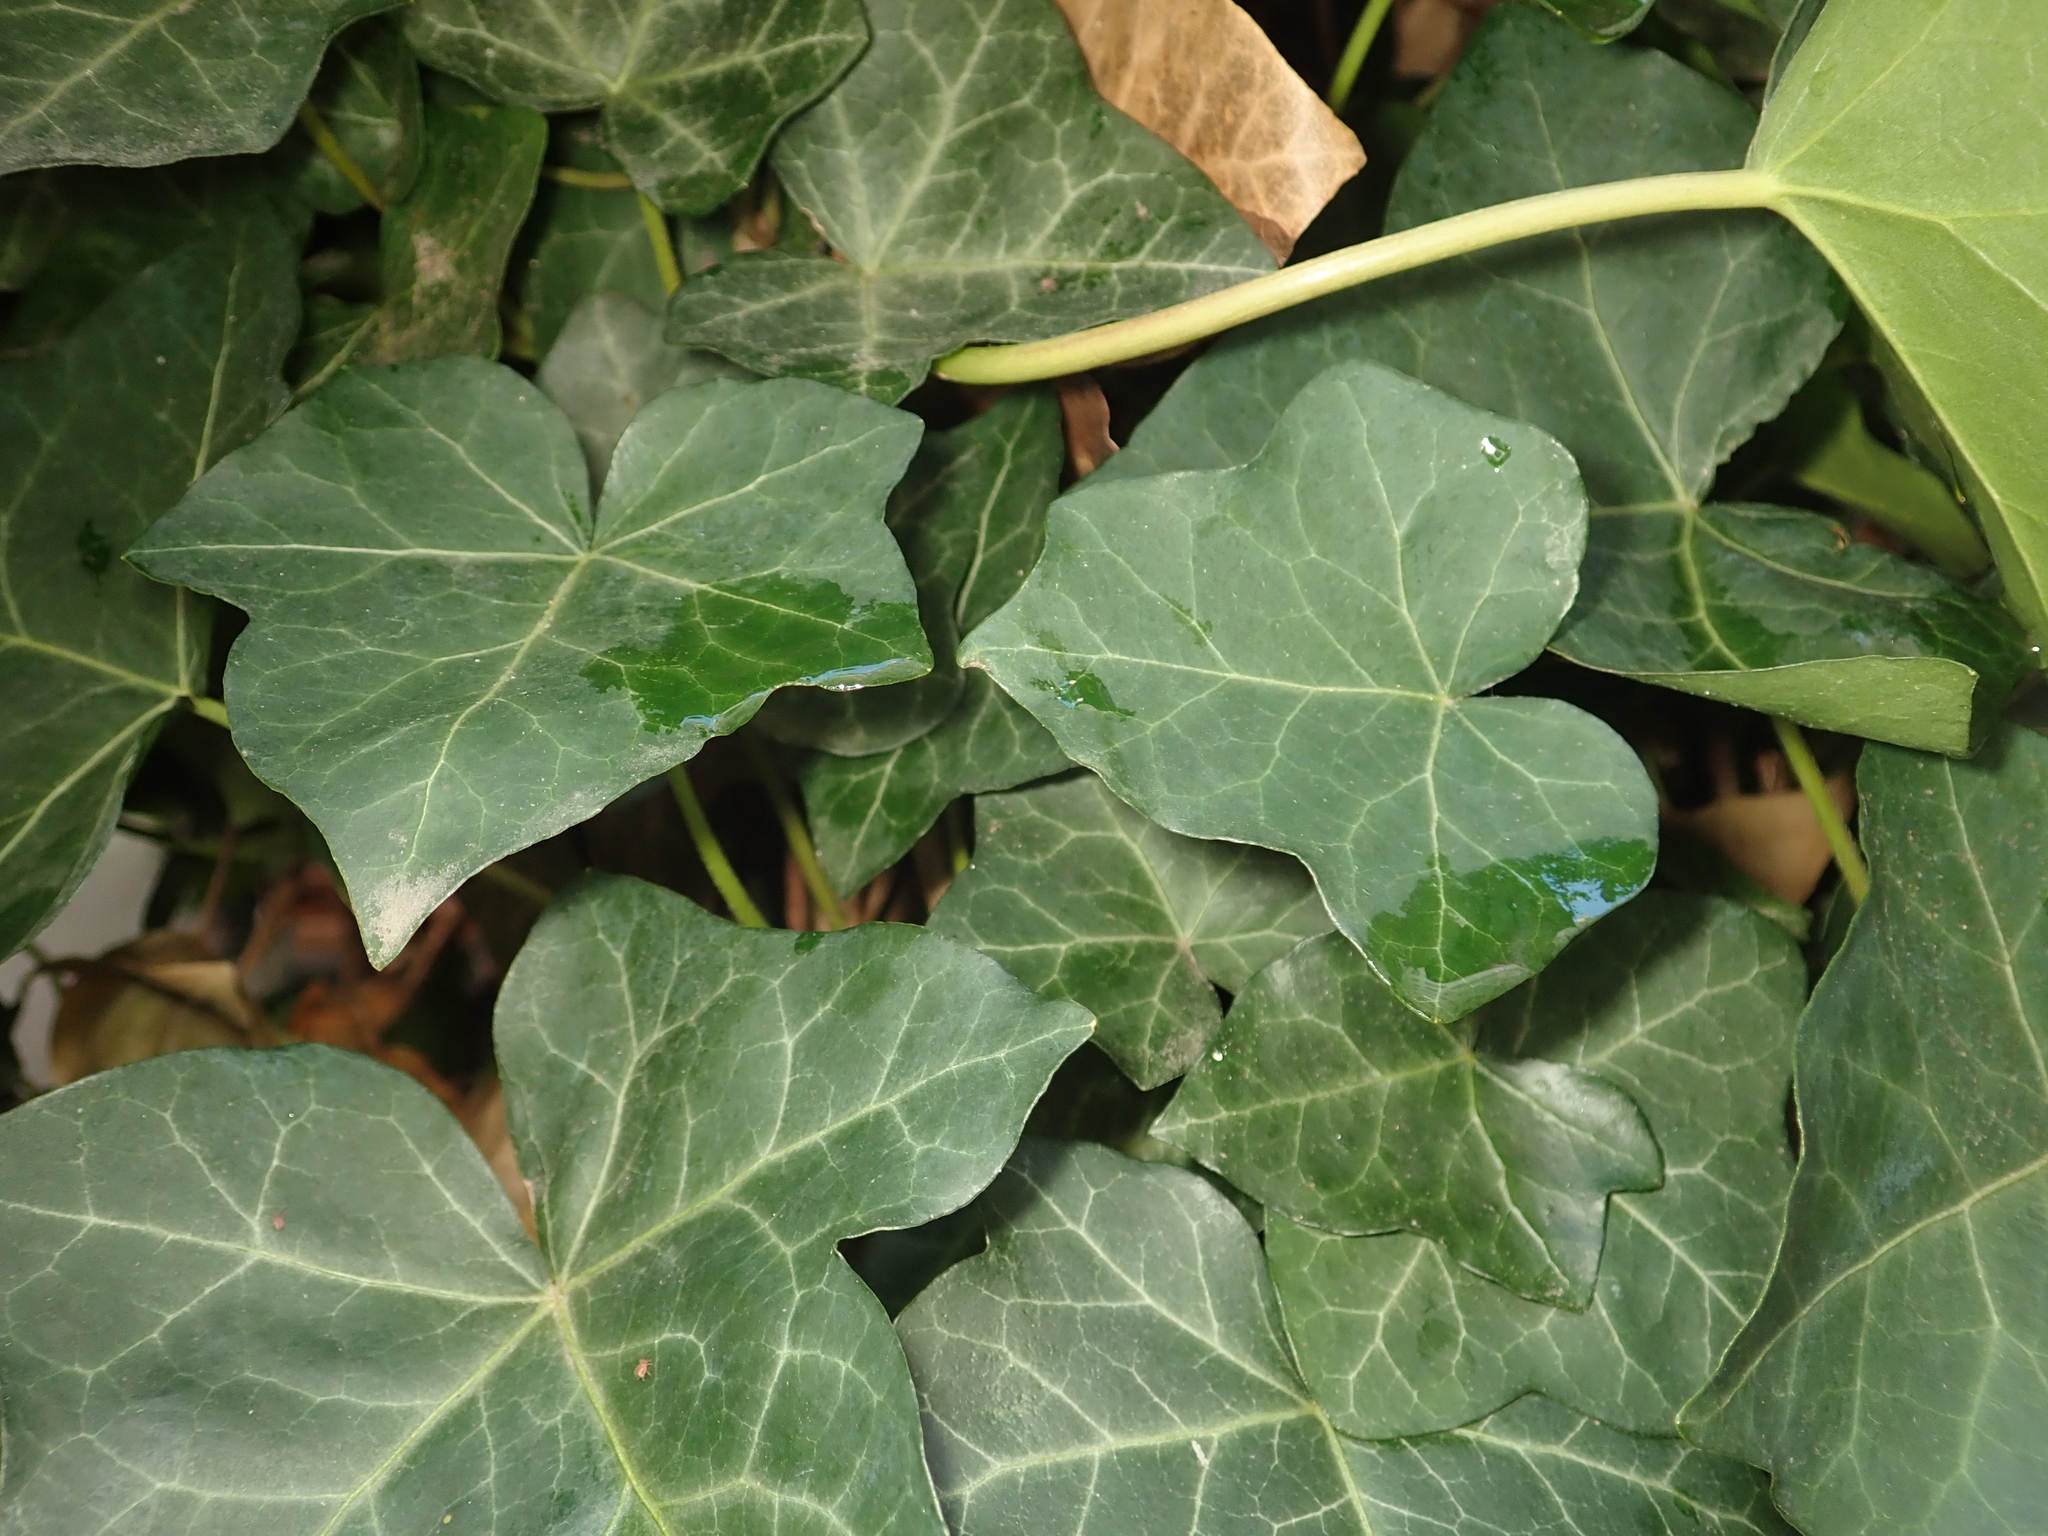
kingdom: Plantae
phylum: Tracheophyta
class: Magnoliopsida
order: Apiales
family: Araliaceae
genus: Hedera
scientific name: Hedera helix
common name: Ivy
